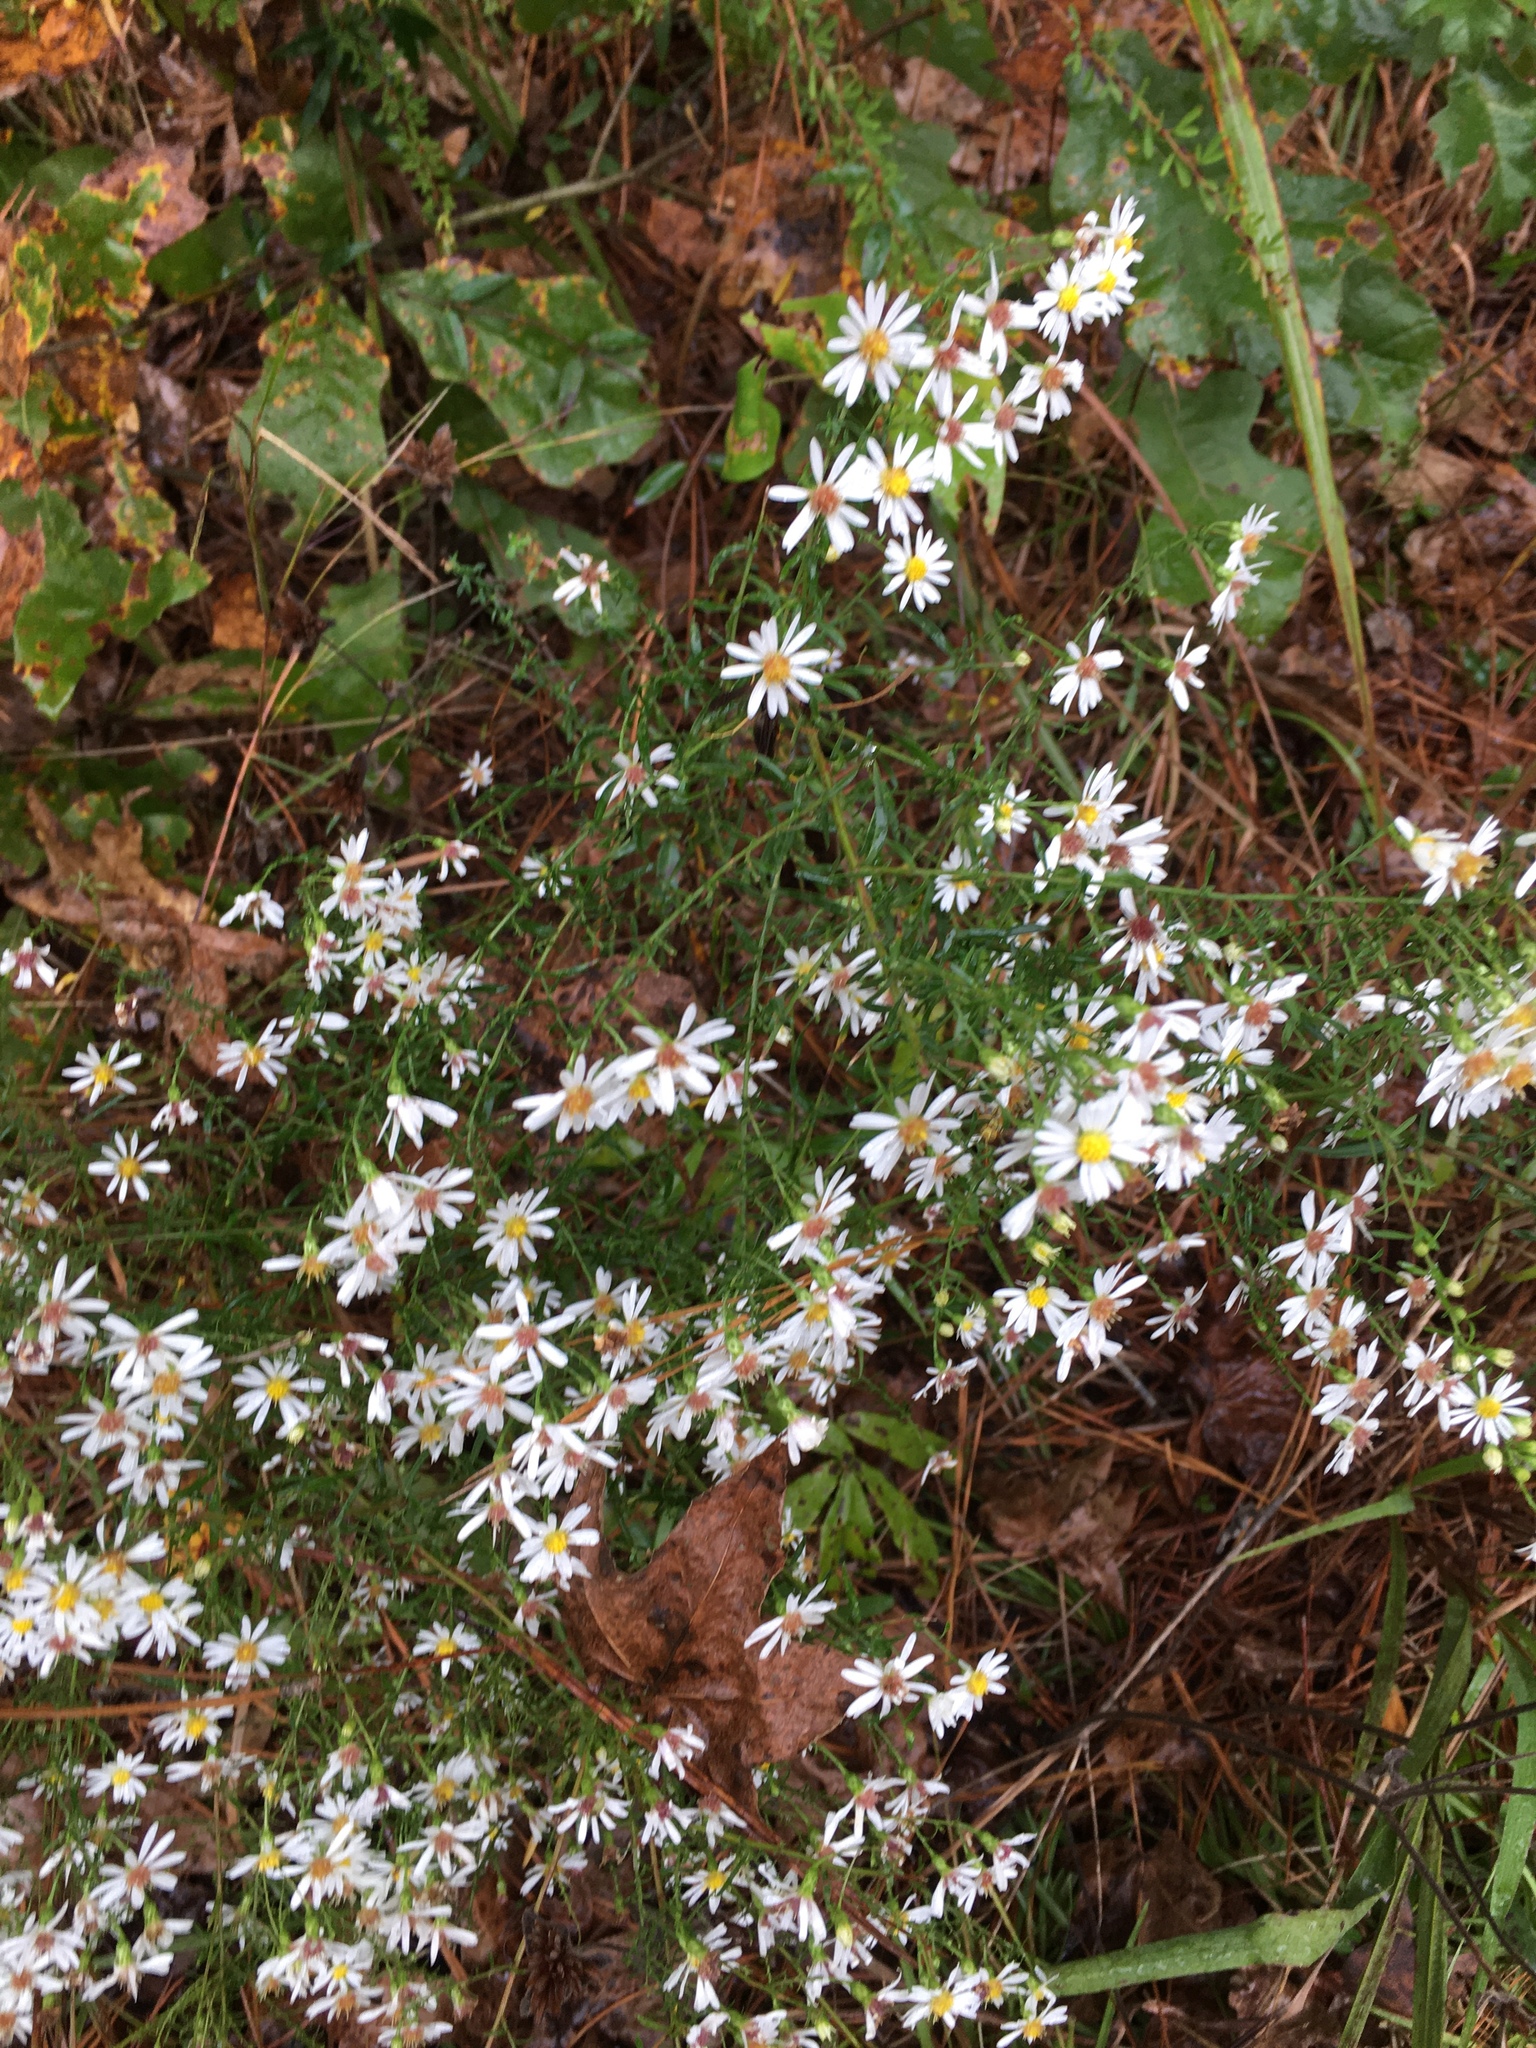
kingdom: Plantae
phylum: Tracheophyta
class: Magnoliopsida
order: Asterales
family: Asteraceae
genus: Symphyotrichum
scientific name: Symphyotrichum dumosum
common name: Bushy aster
